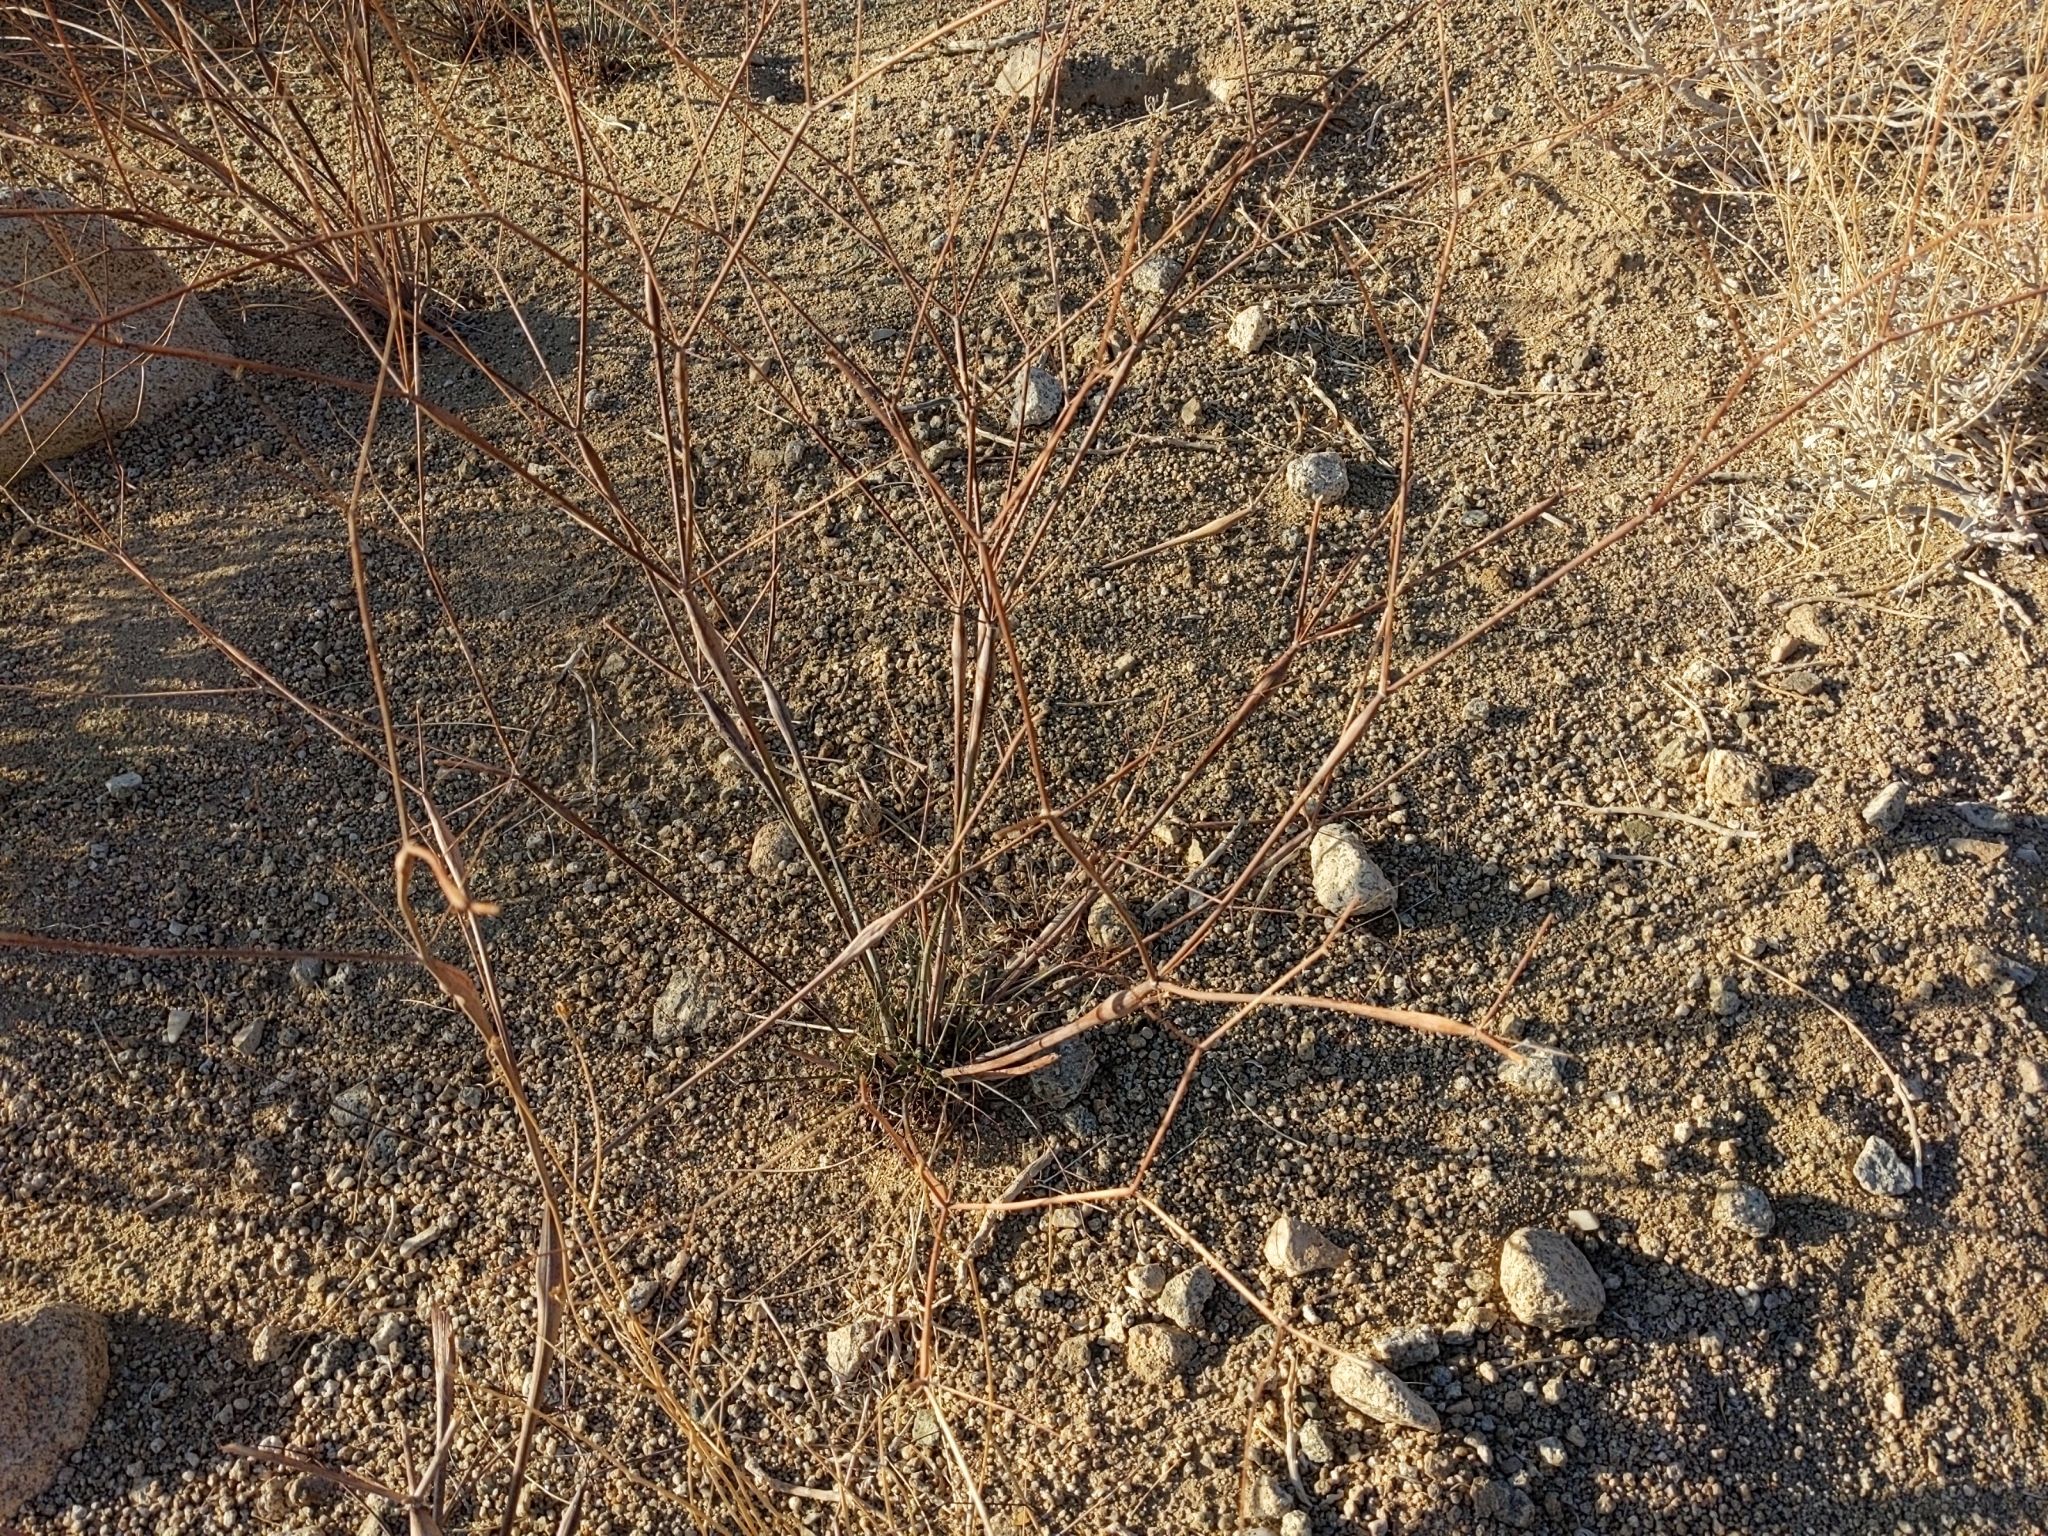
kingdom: Plantae
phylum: Tracheophyta
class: Magnoliopsida
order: Caryophyllales
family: Polygonaceae
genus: Eriogonum
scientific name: Eriogonum inflatum
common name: Desert trumpet
